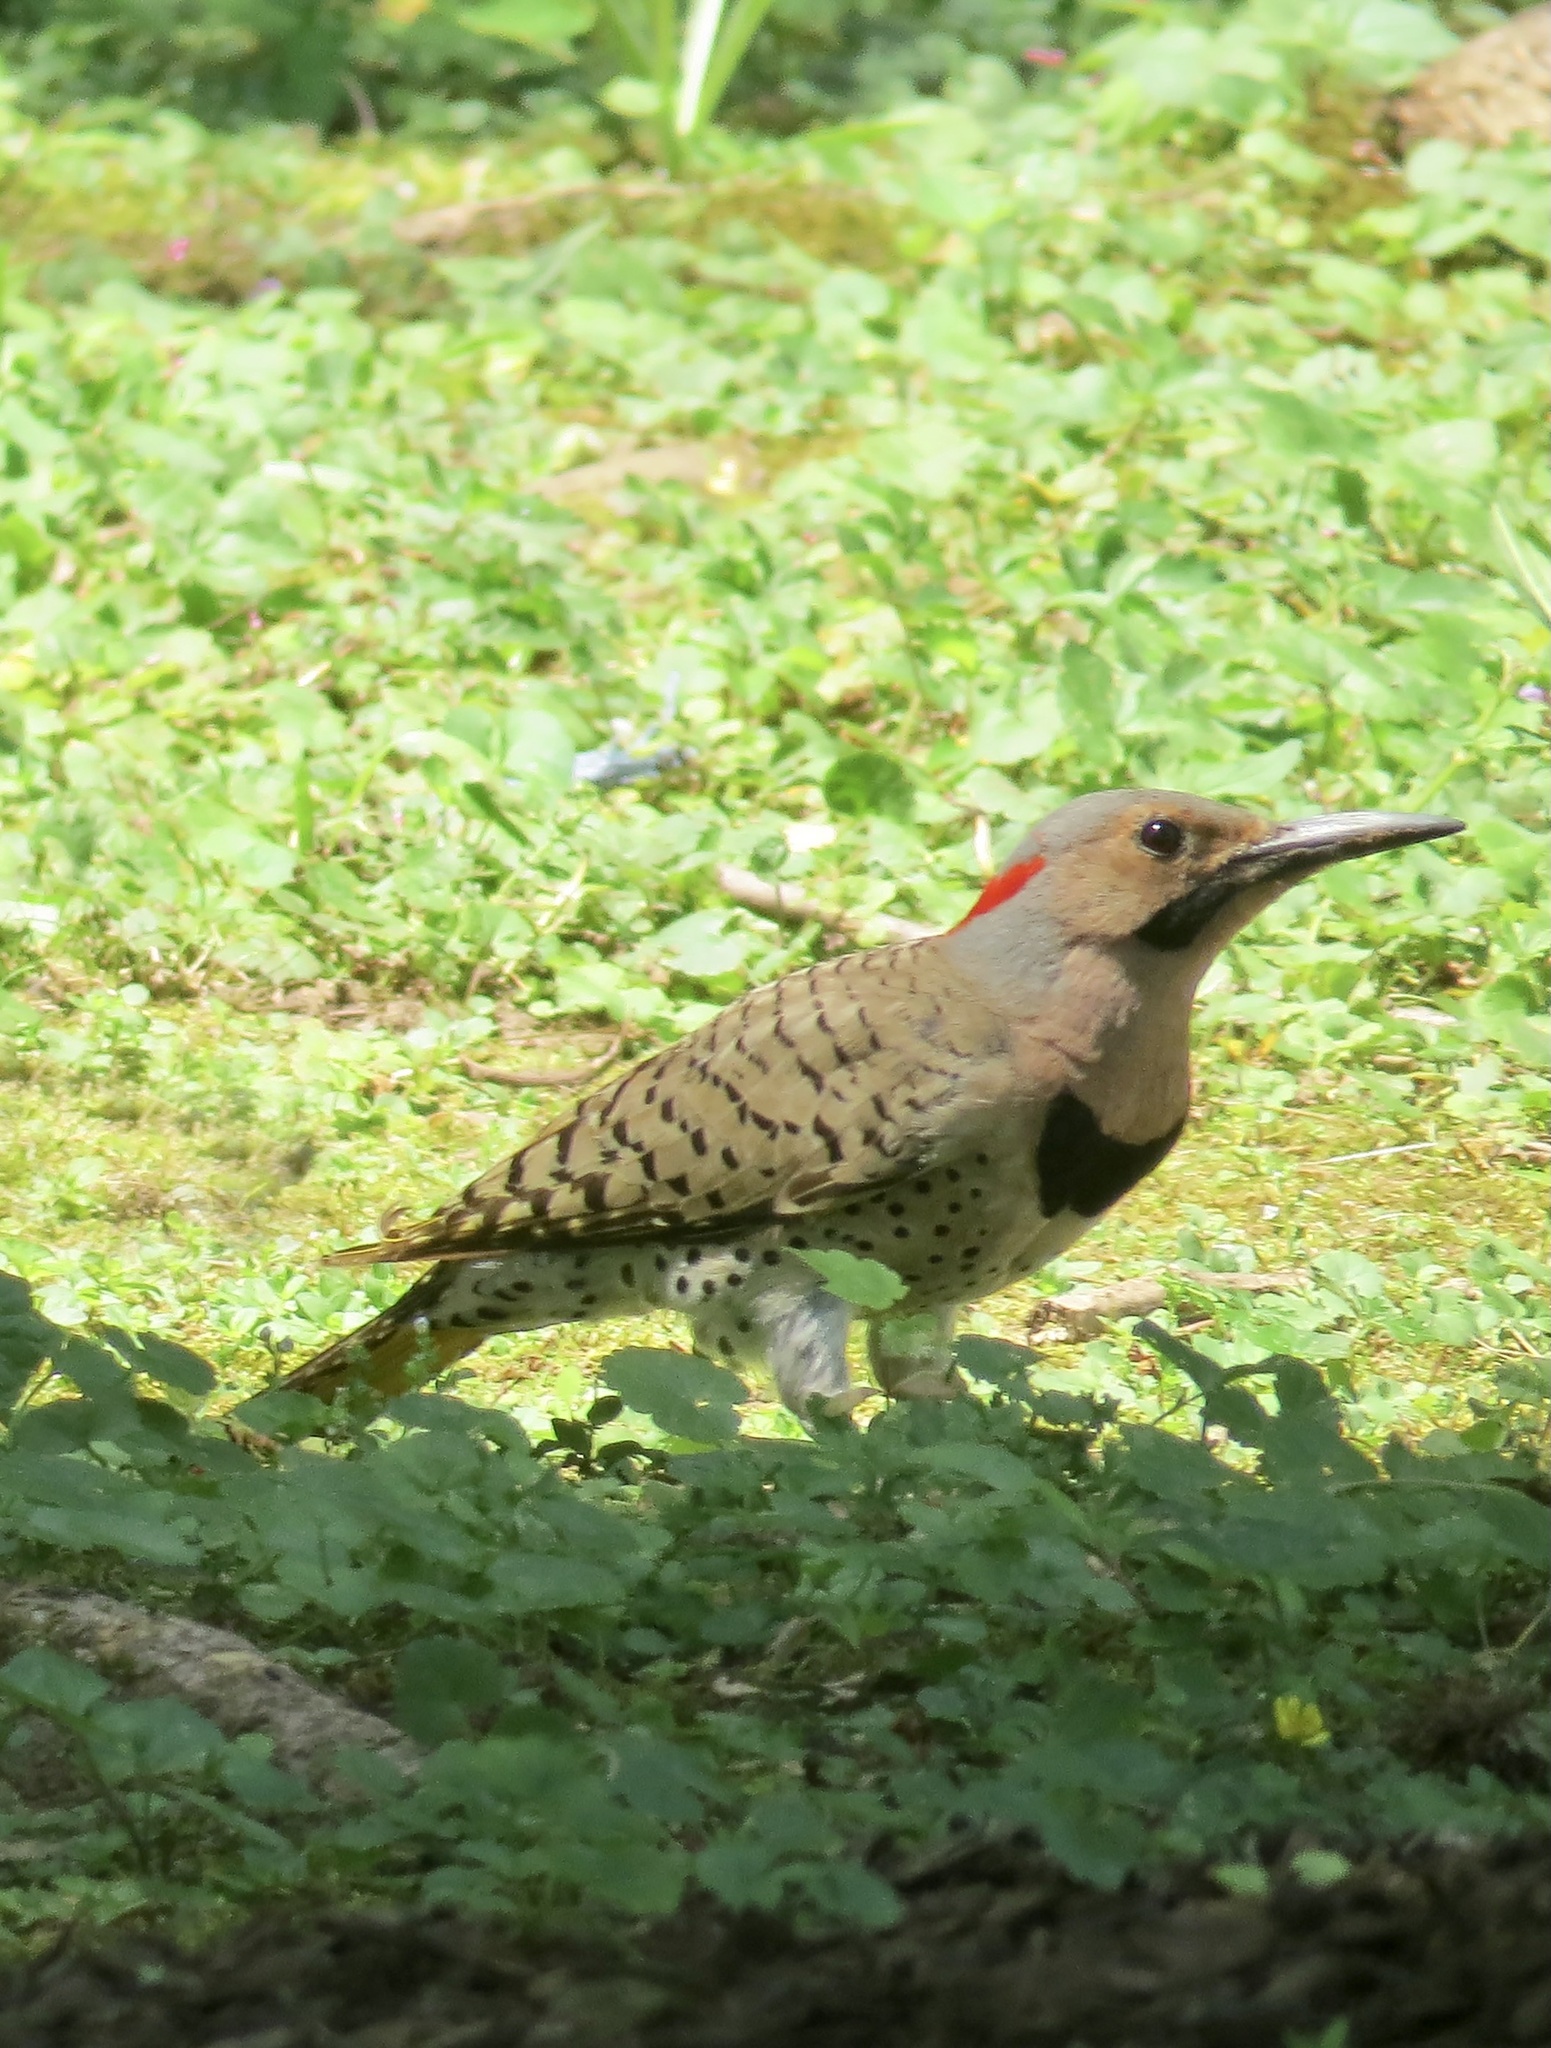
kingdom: Animalia
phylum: Chordata
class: Aves
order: Piciformes
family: Picidae
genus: Colaptes
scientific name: Colaptes auratus
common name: Northern flicker
